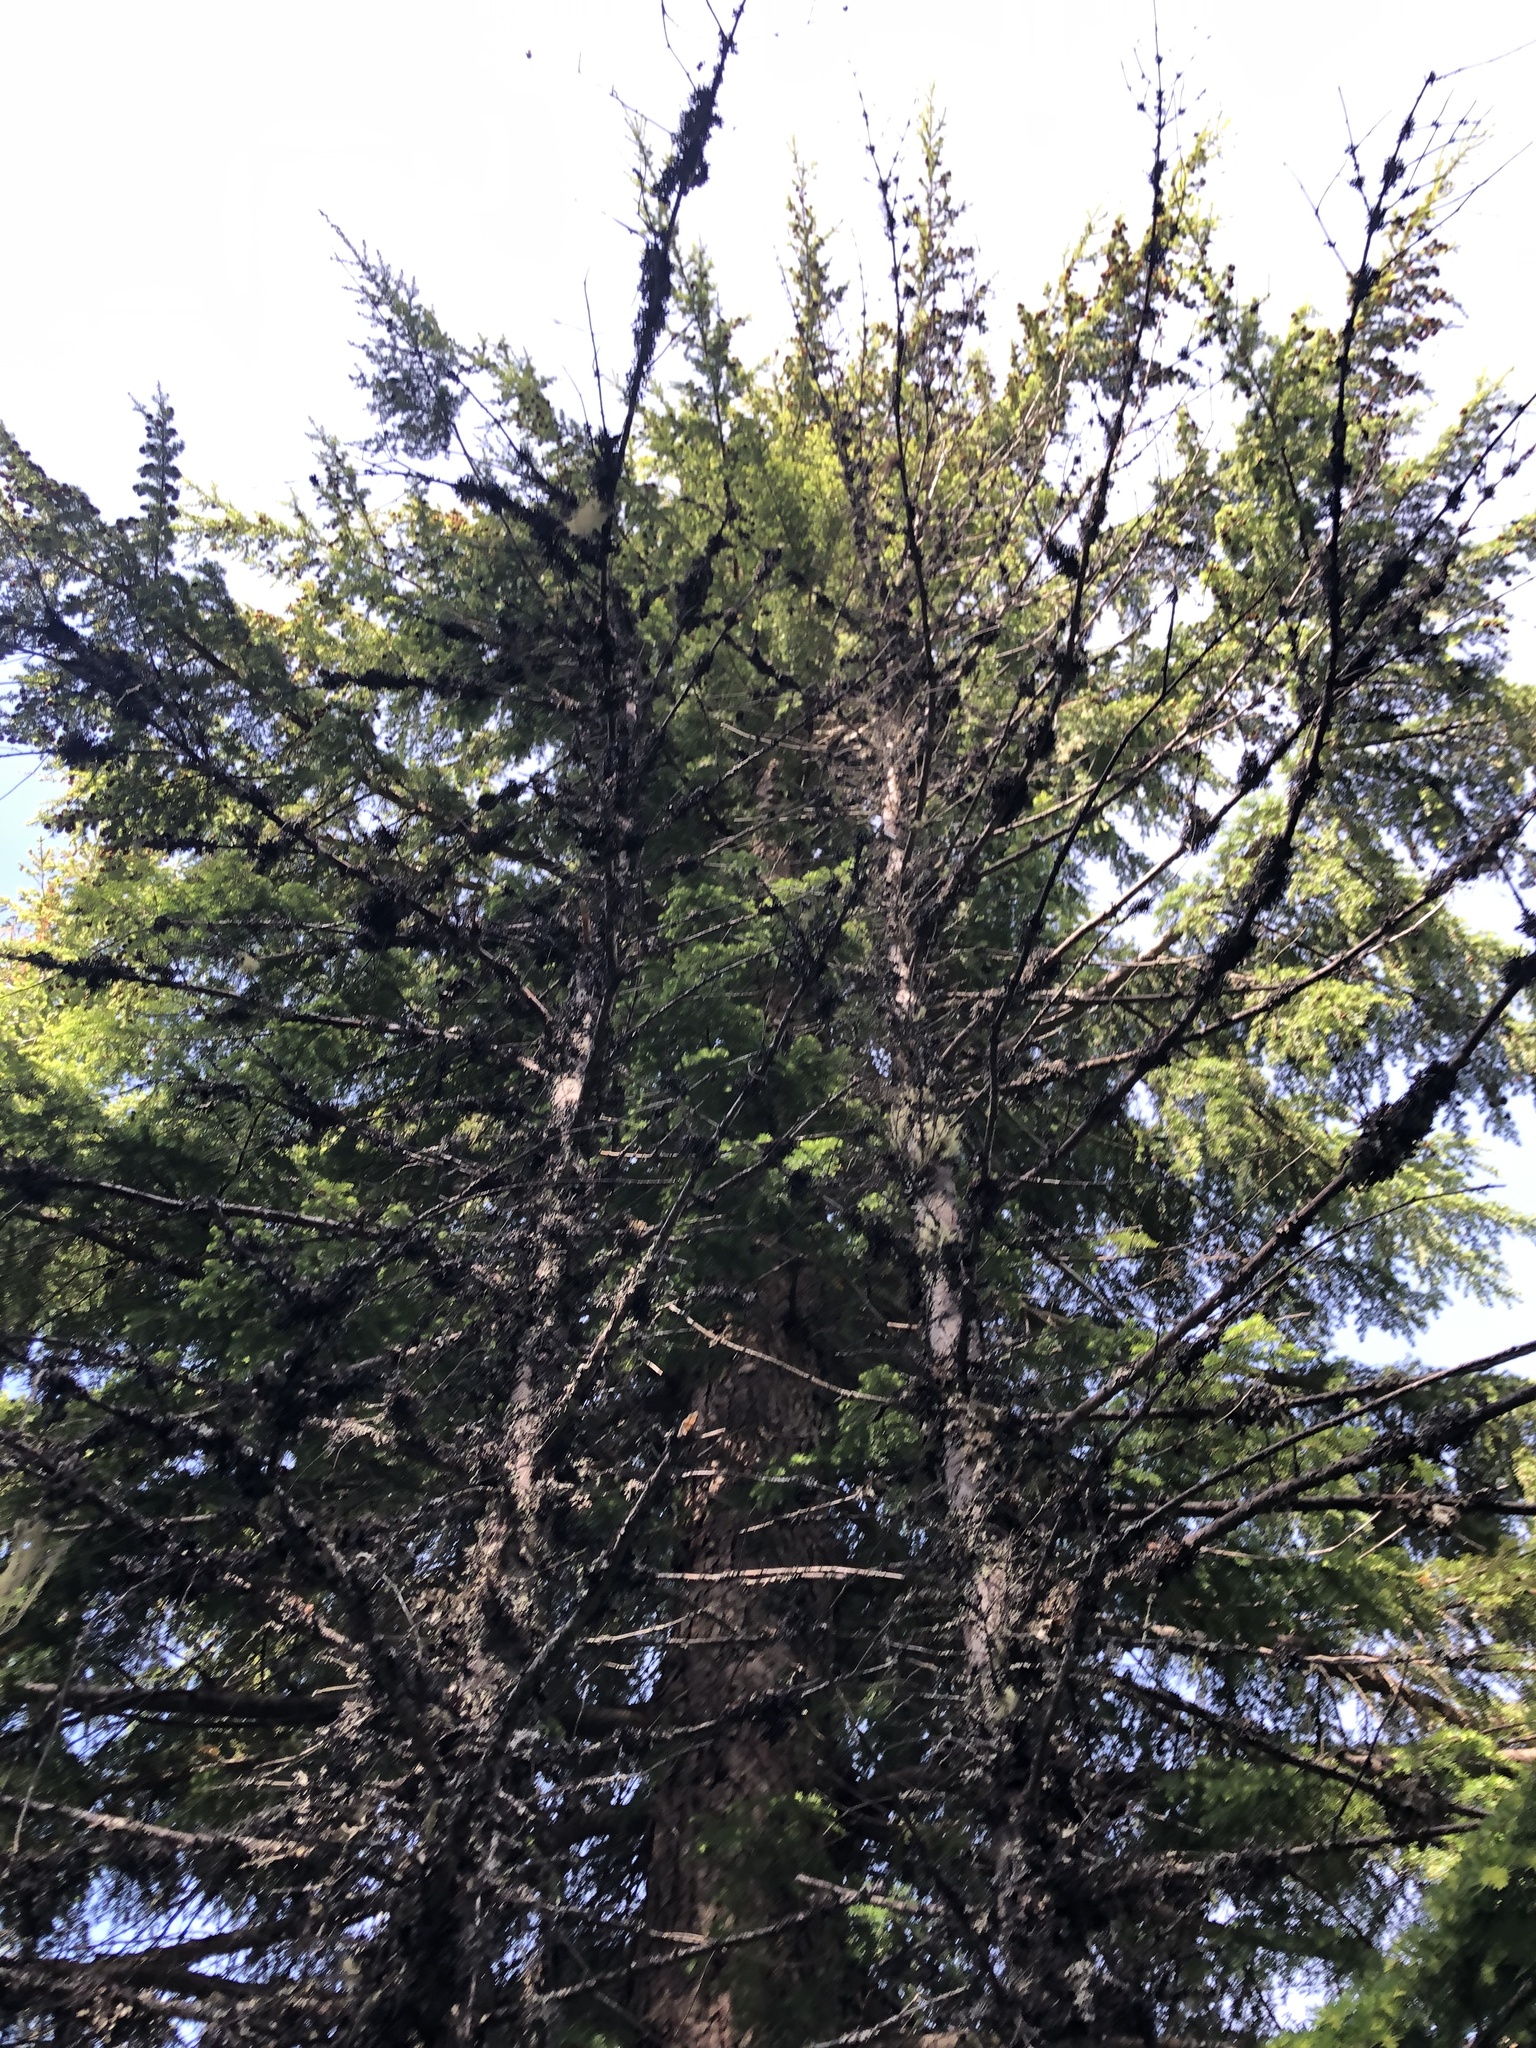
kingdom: Plantae
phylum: Tracheophyta
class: Pinopsida
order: Pinales
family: Pinaceae
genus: Tsuga
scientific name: Tsuga heterophylla
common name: Western hemlock
